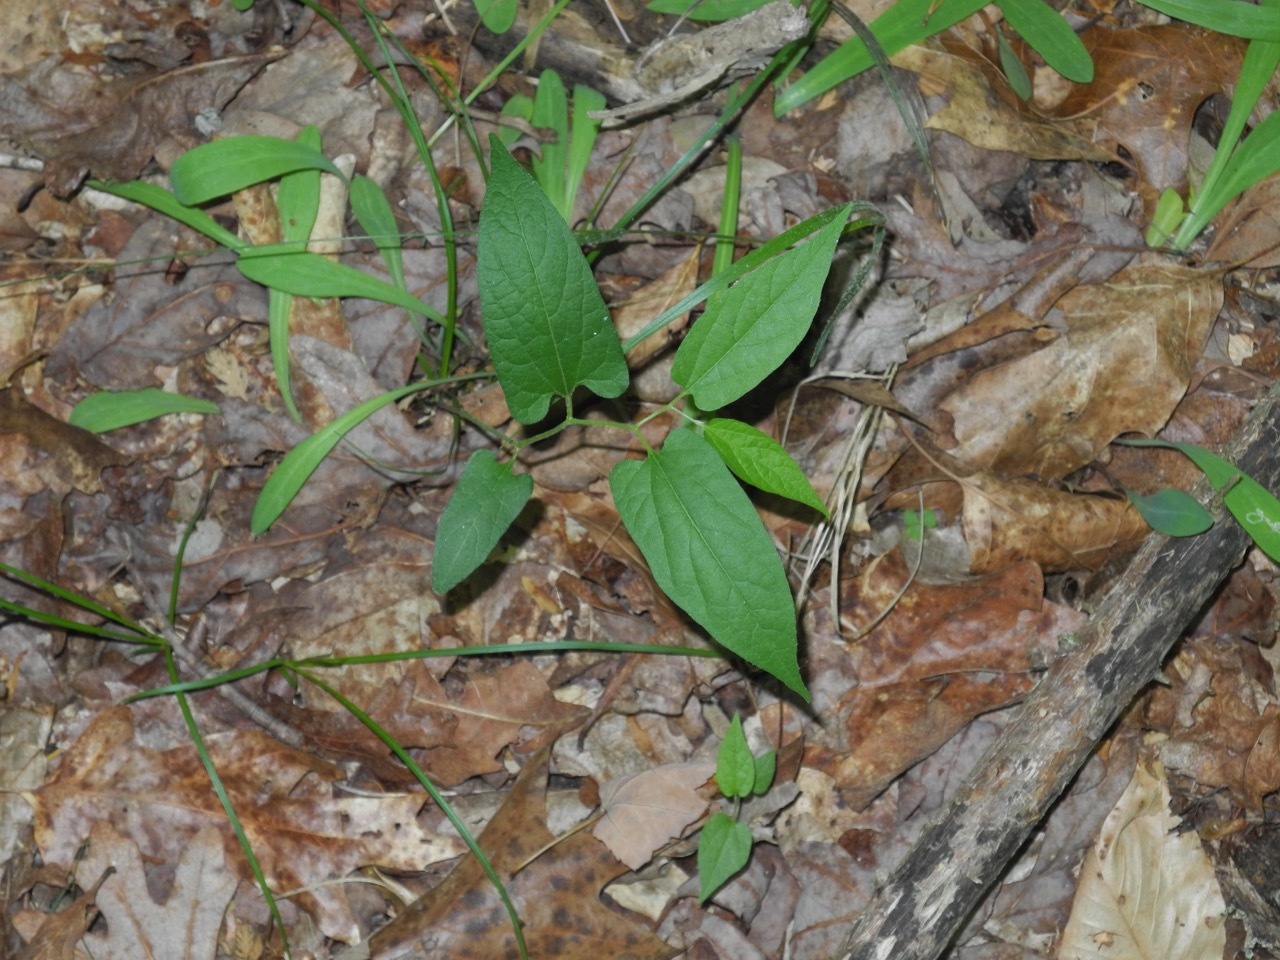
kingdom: Plantae
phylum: Tracheophyta
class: Magnoliopsida
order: Piperales
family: Aristolochiaceae
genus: Endodeca
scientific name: Endodeca serpentaria
